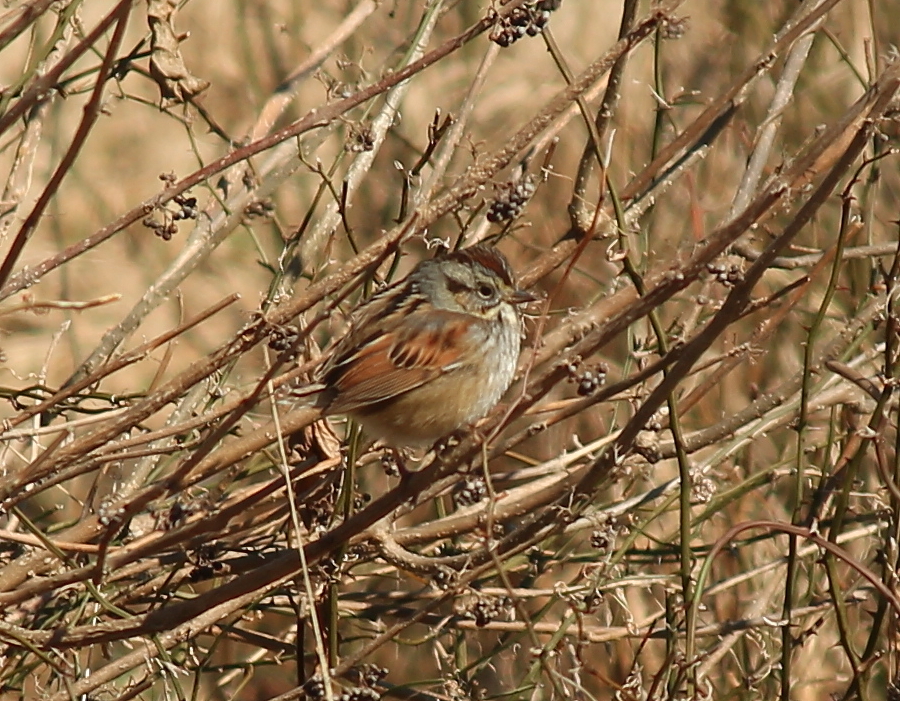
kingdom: Animalia
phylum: Chordata
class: Aves
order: Passeriformes
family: Passerellidae
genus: Melospiza
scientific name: Melospiza georgiana
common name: Swamp sparrow
